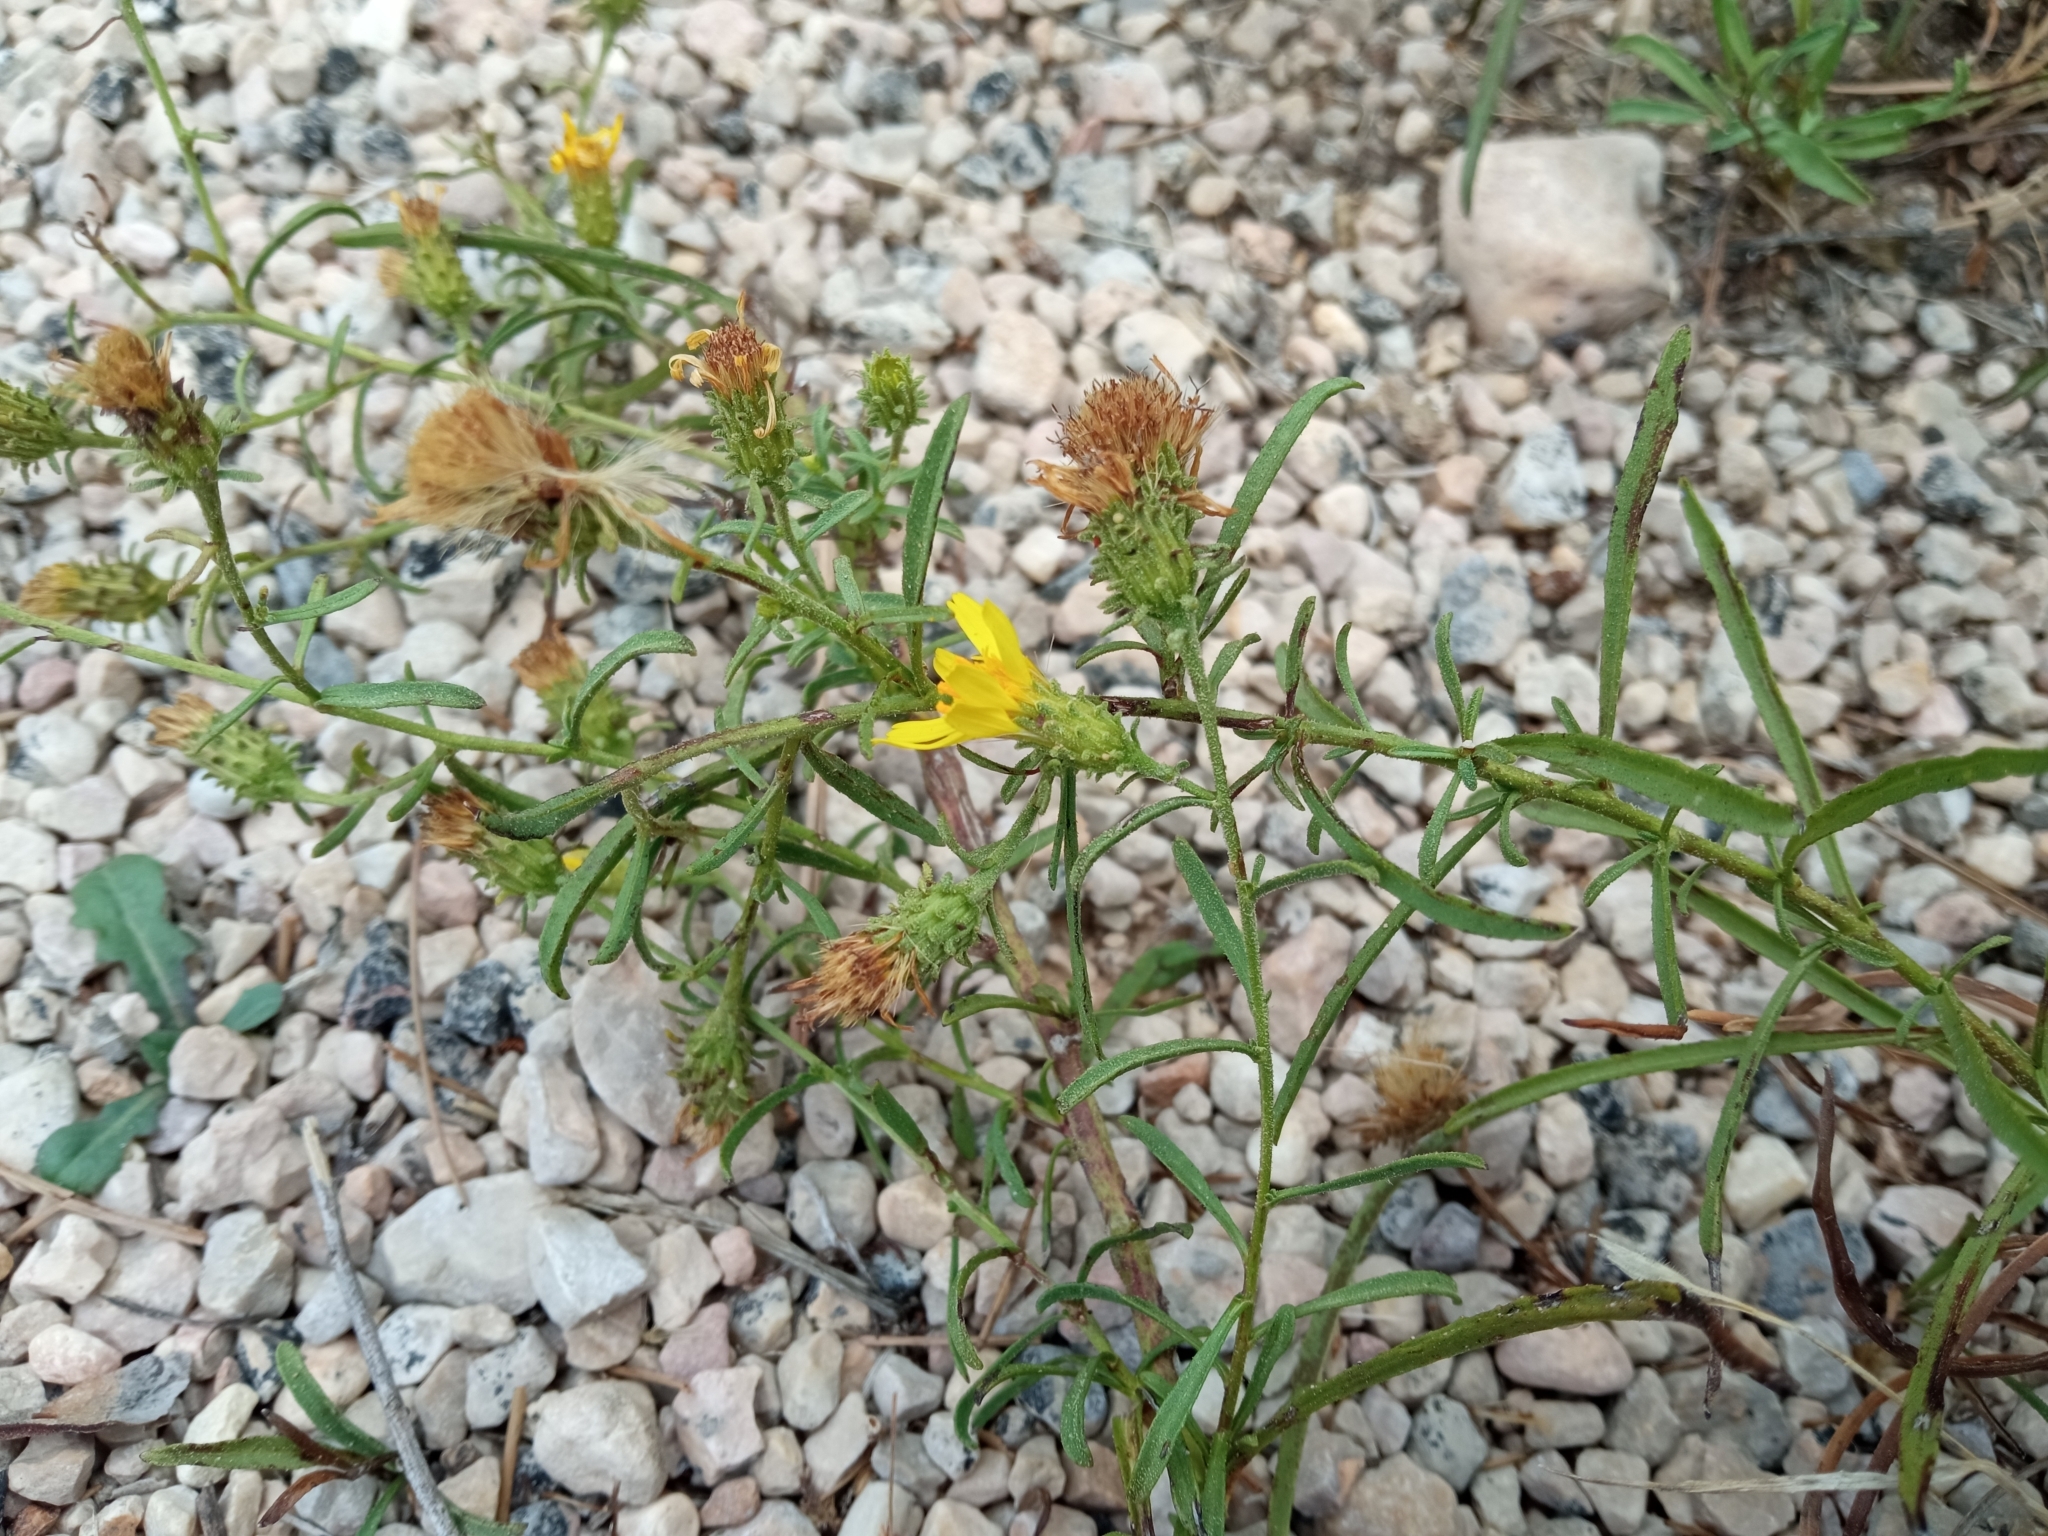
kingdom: Plantae
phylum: Tracheophyta
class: Magnoliopsida
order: Asterales
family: Asteraceae
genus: Jasonia
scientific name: Jasonia tuberosa
